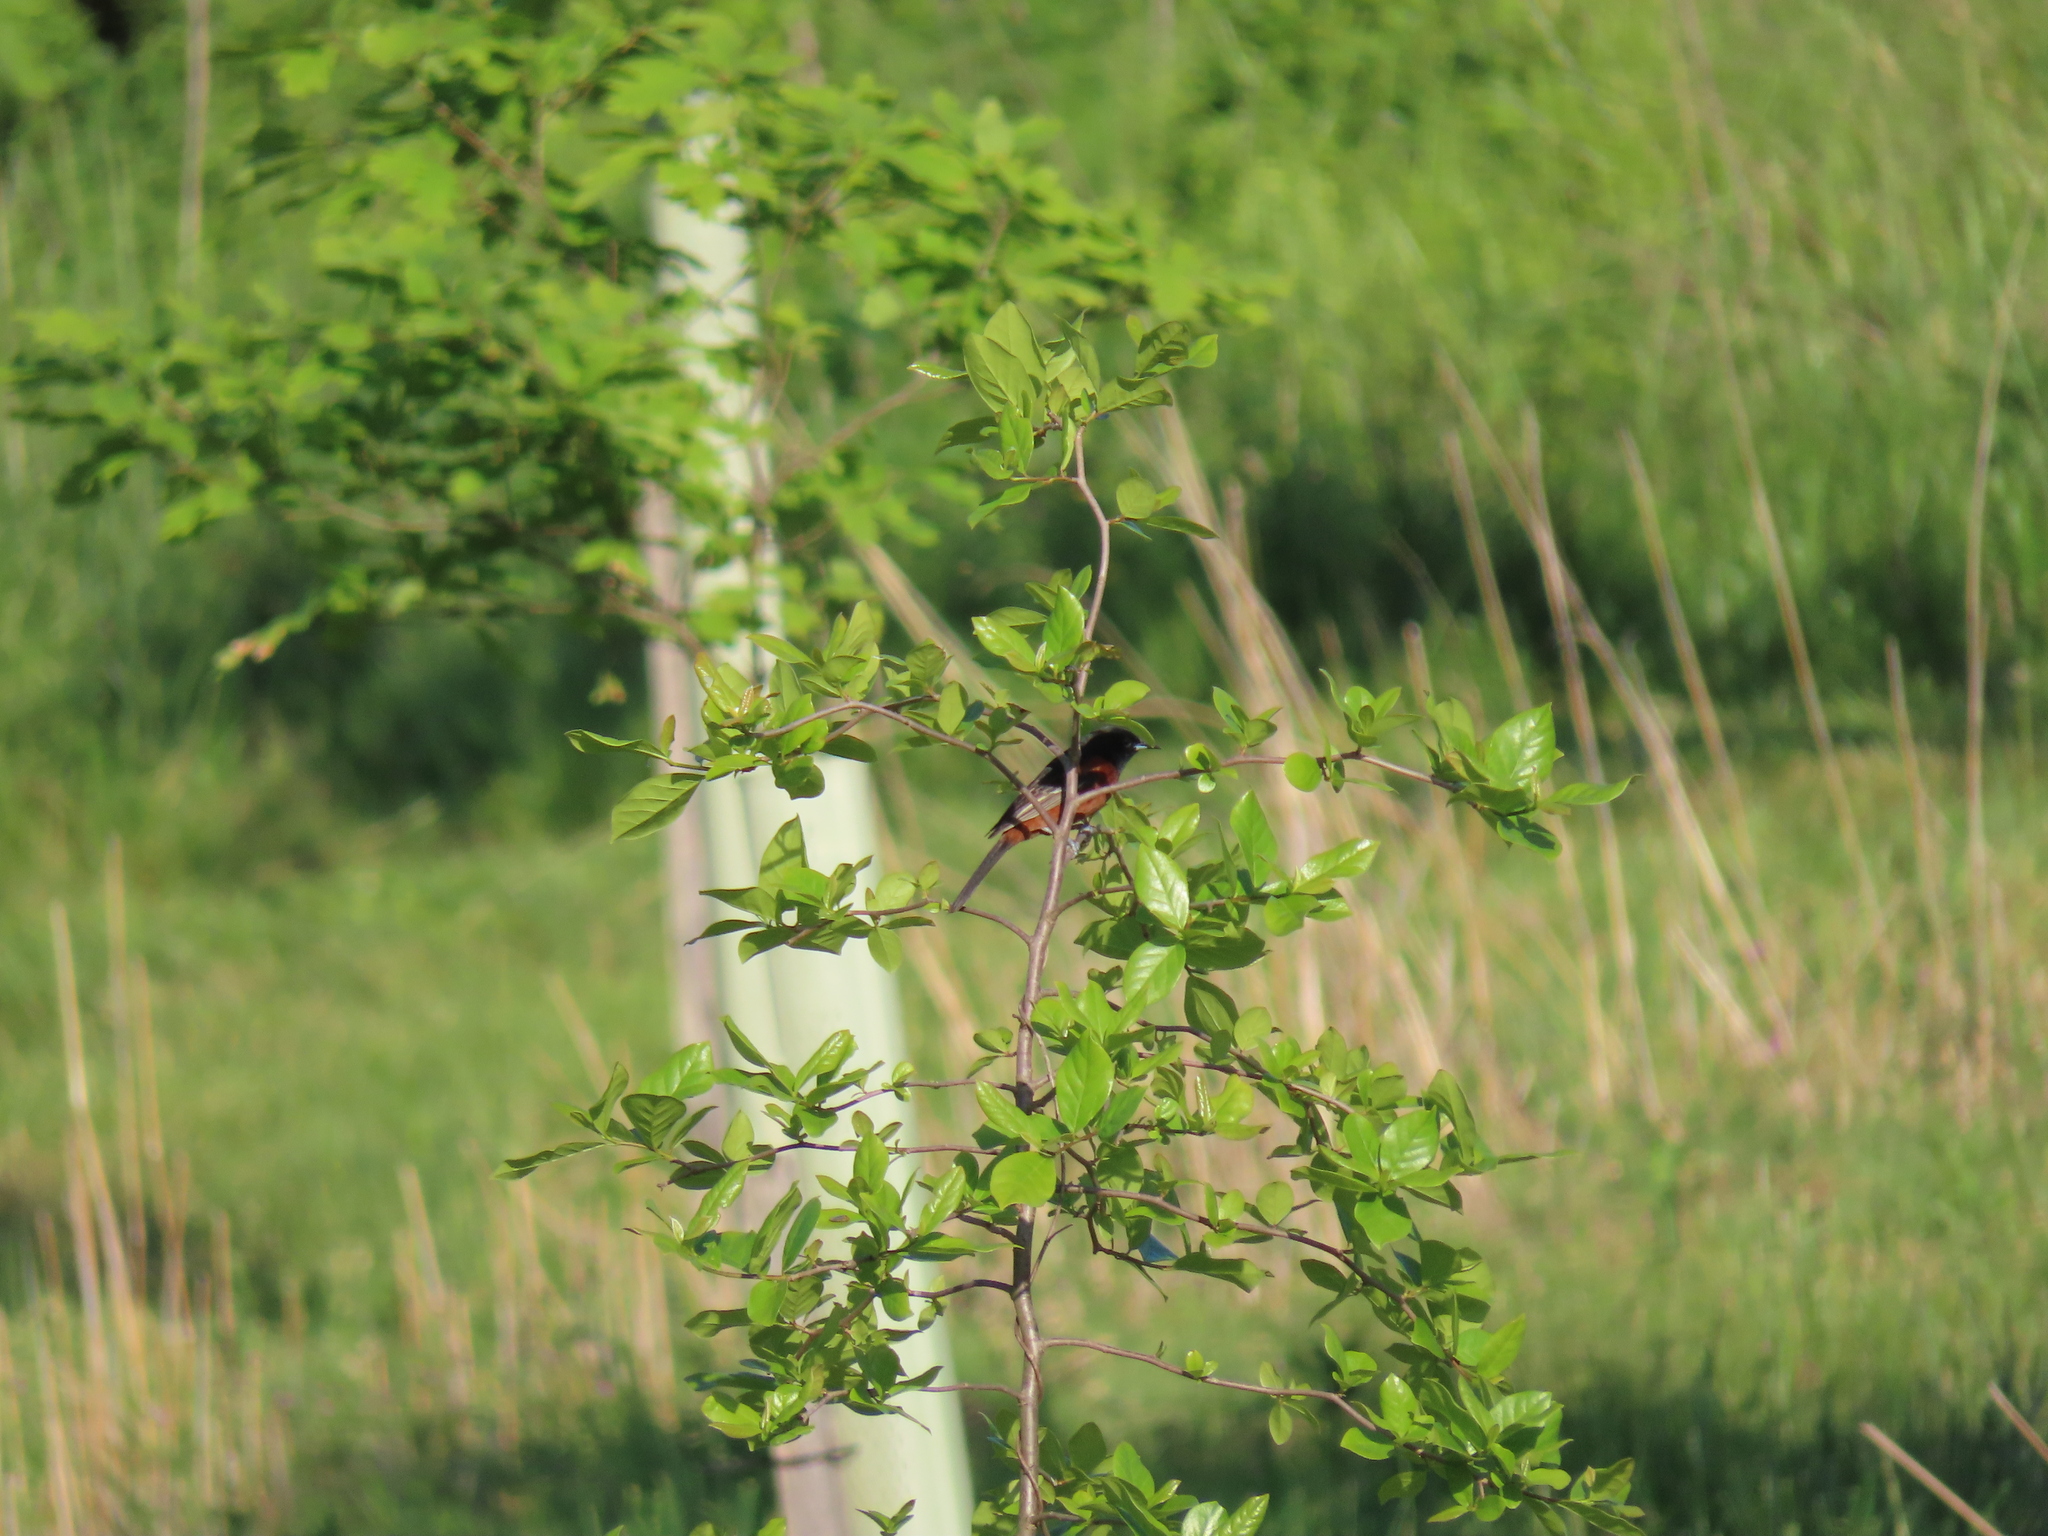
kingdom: Animalia
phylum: Chordata
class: Aves
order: Passeriformes
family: Icteridae
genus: Icterus
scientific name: Icterus spurius
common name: Orchard oriole
